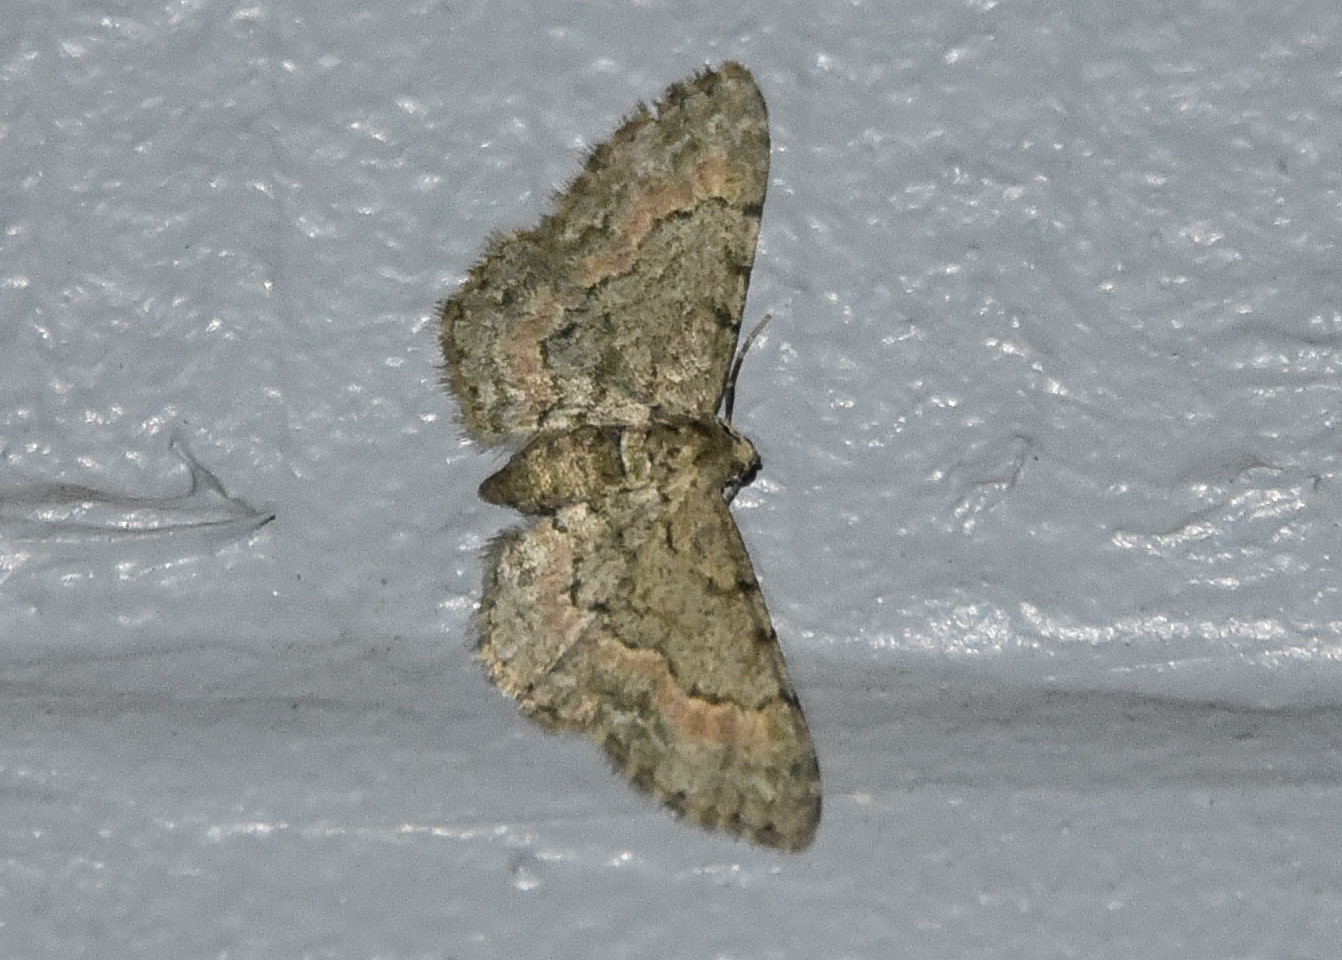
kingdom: Animalia
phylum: Arthropoda
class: Insecta
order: Lepidoptera
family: Geometridae
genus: Glenoides
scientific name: Glenoides texanaria
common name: Texas gray
